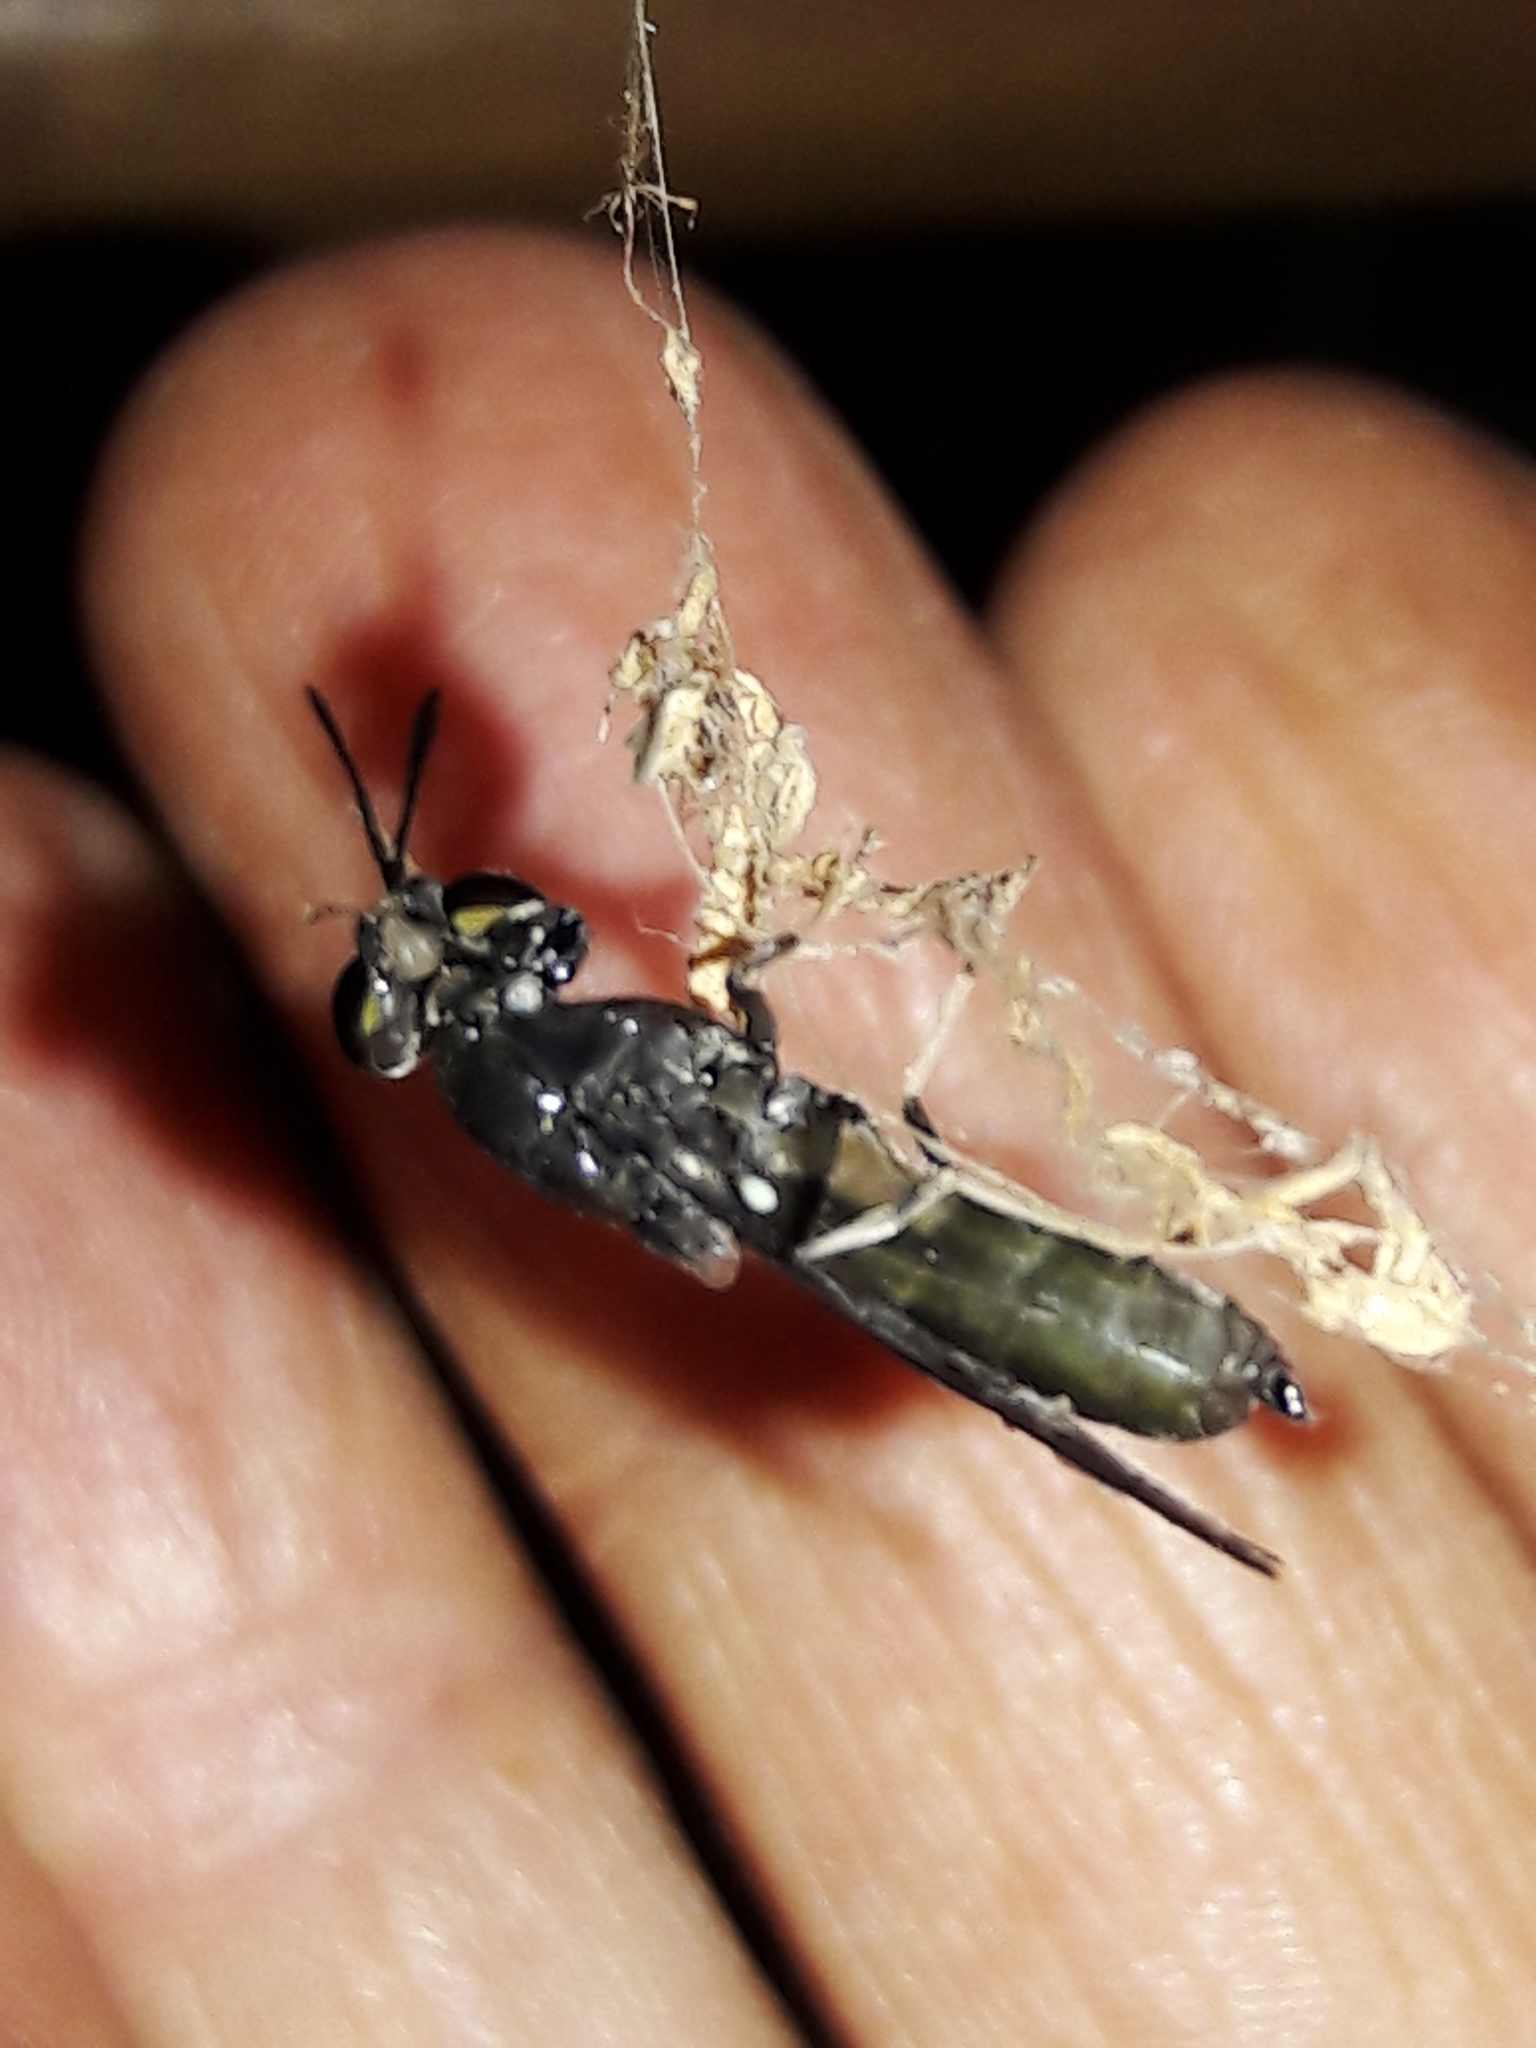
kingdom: Animalia
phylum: Arthropoda
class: Insecta
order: Diptera
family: Stratiomyidae
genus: Hermetia
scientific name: Hermetia illucens
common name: Black soldier fly
